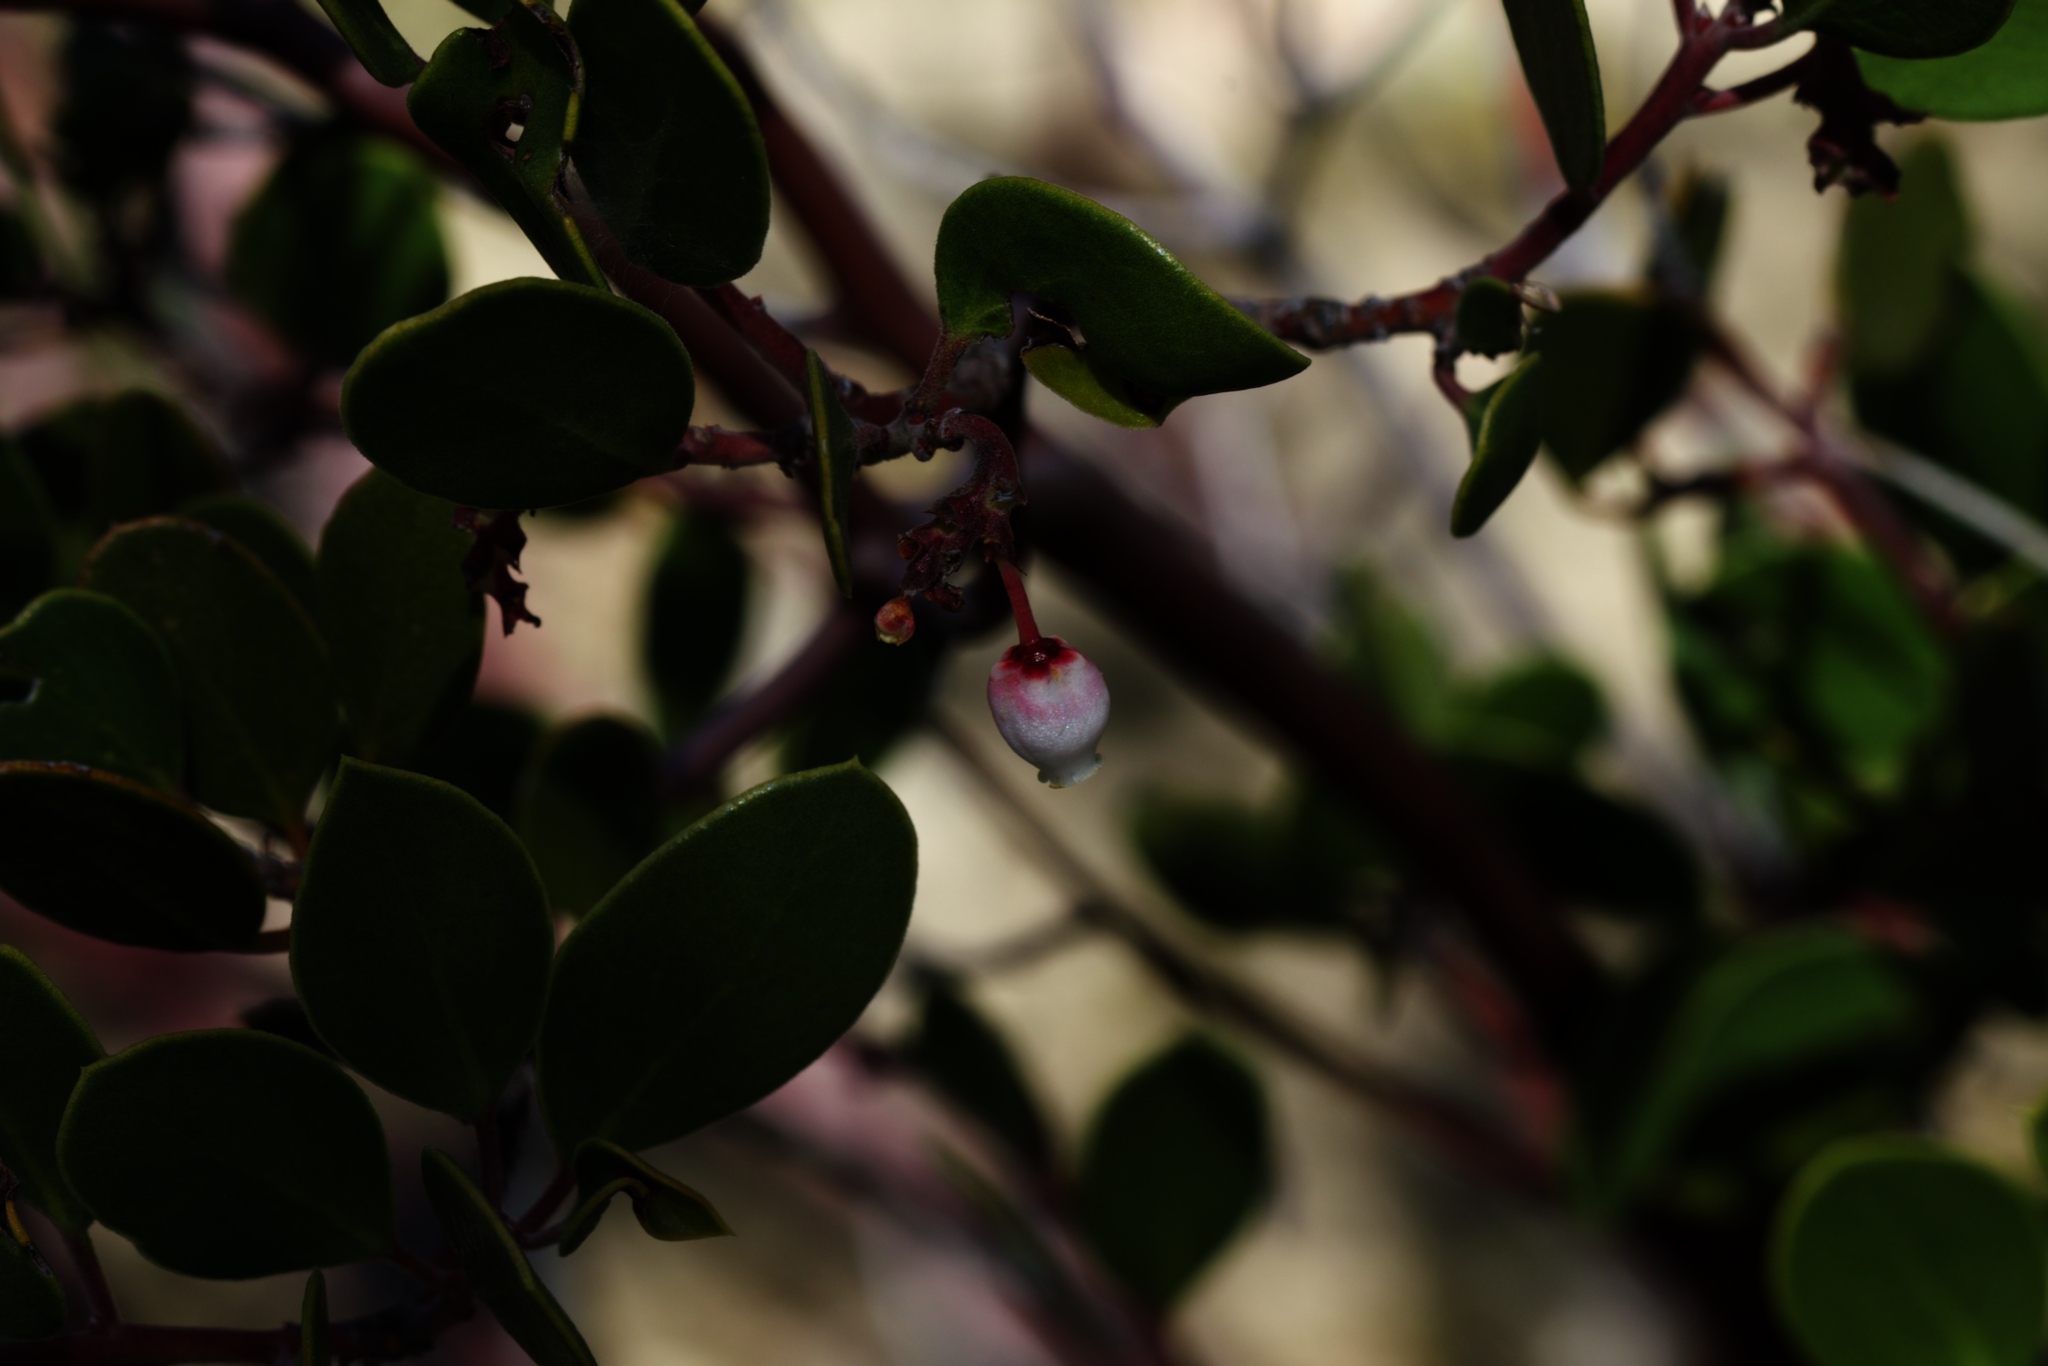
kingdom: Plantae
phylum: Tracheophyta
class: Magnoliopsida
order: Ericales
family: Ericaceae
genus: Arctostaphylos
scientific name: Arctostaphylos pungens
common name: Mexican manzanita
